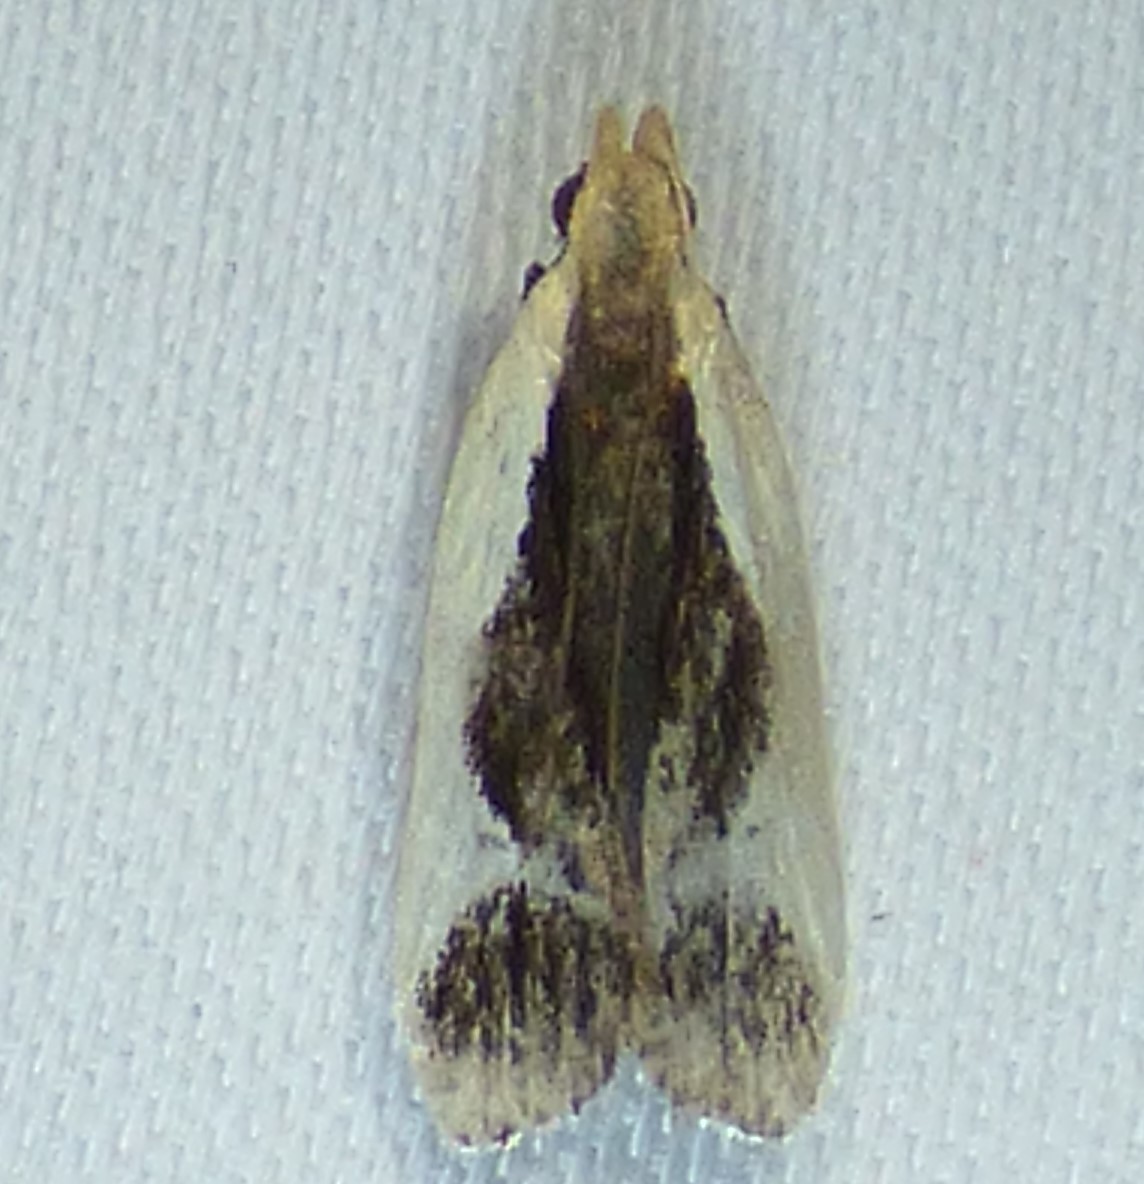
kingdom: Animalia
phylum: Arthropoda
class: Insecta
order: Lepidoptera
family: Gelechiidae
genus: Dichomeris
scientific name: Dichomeris flavocostella
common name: Cream-edged dichomeris moth
